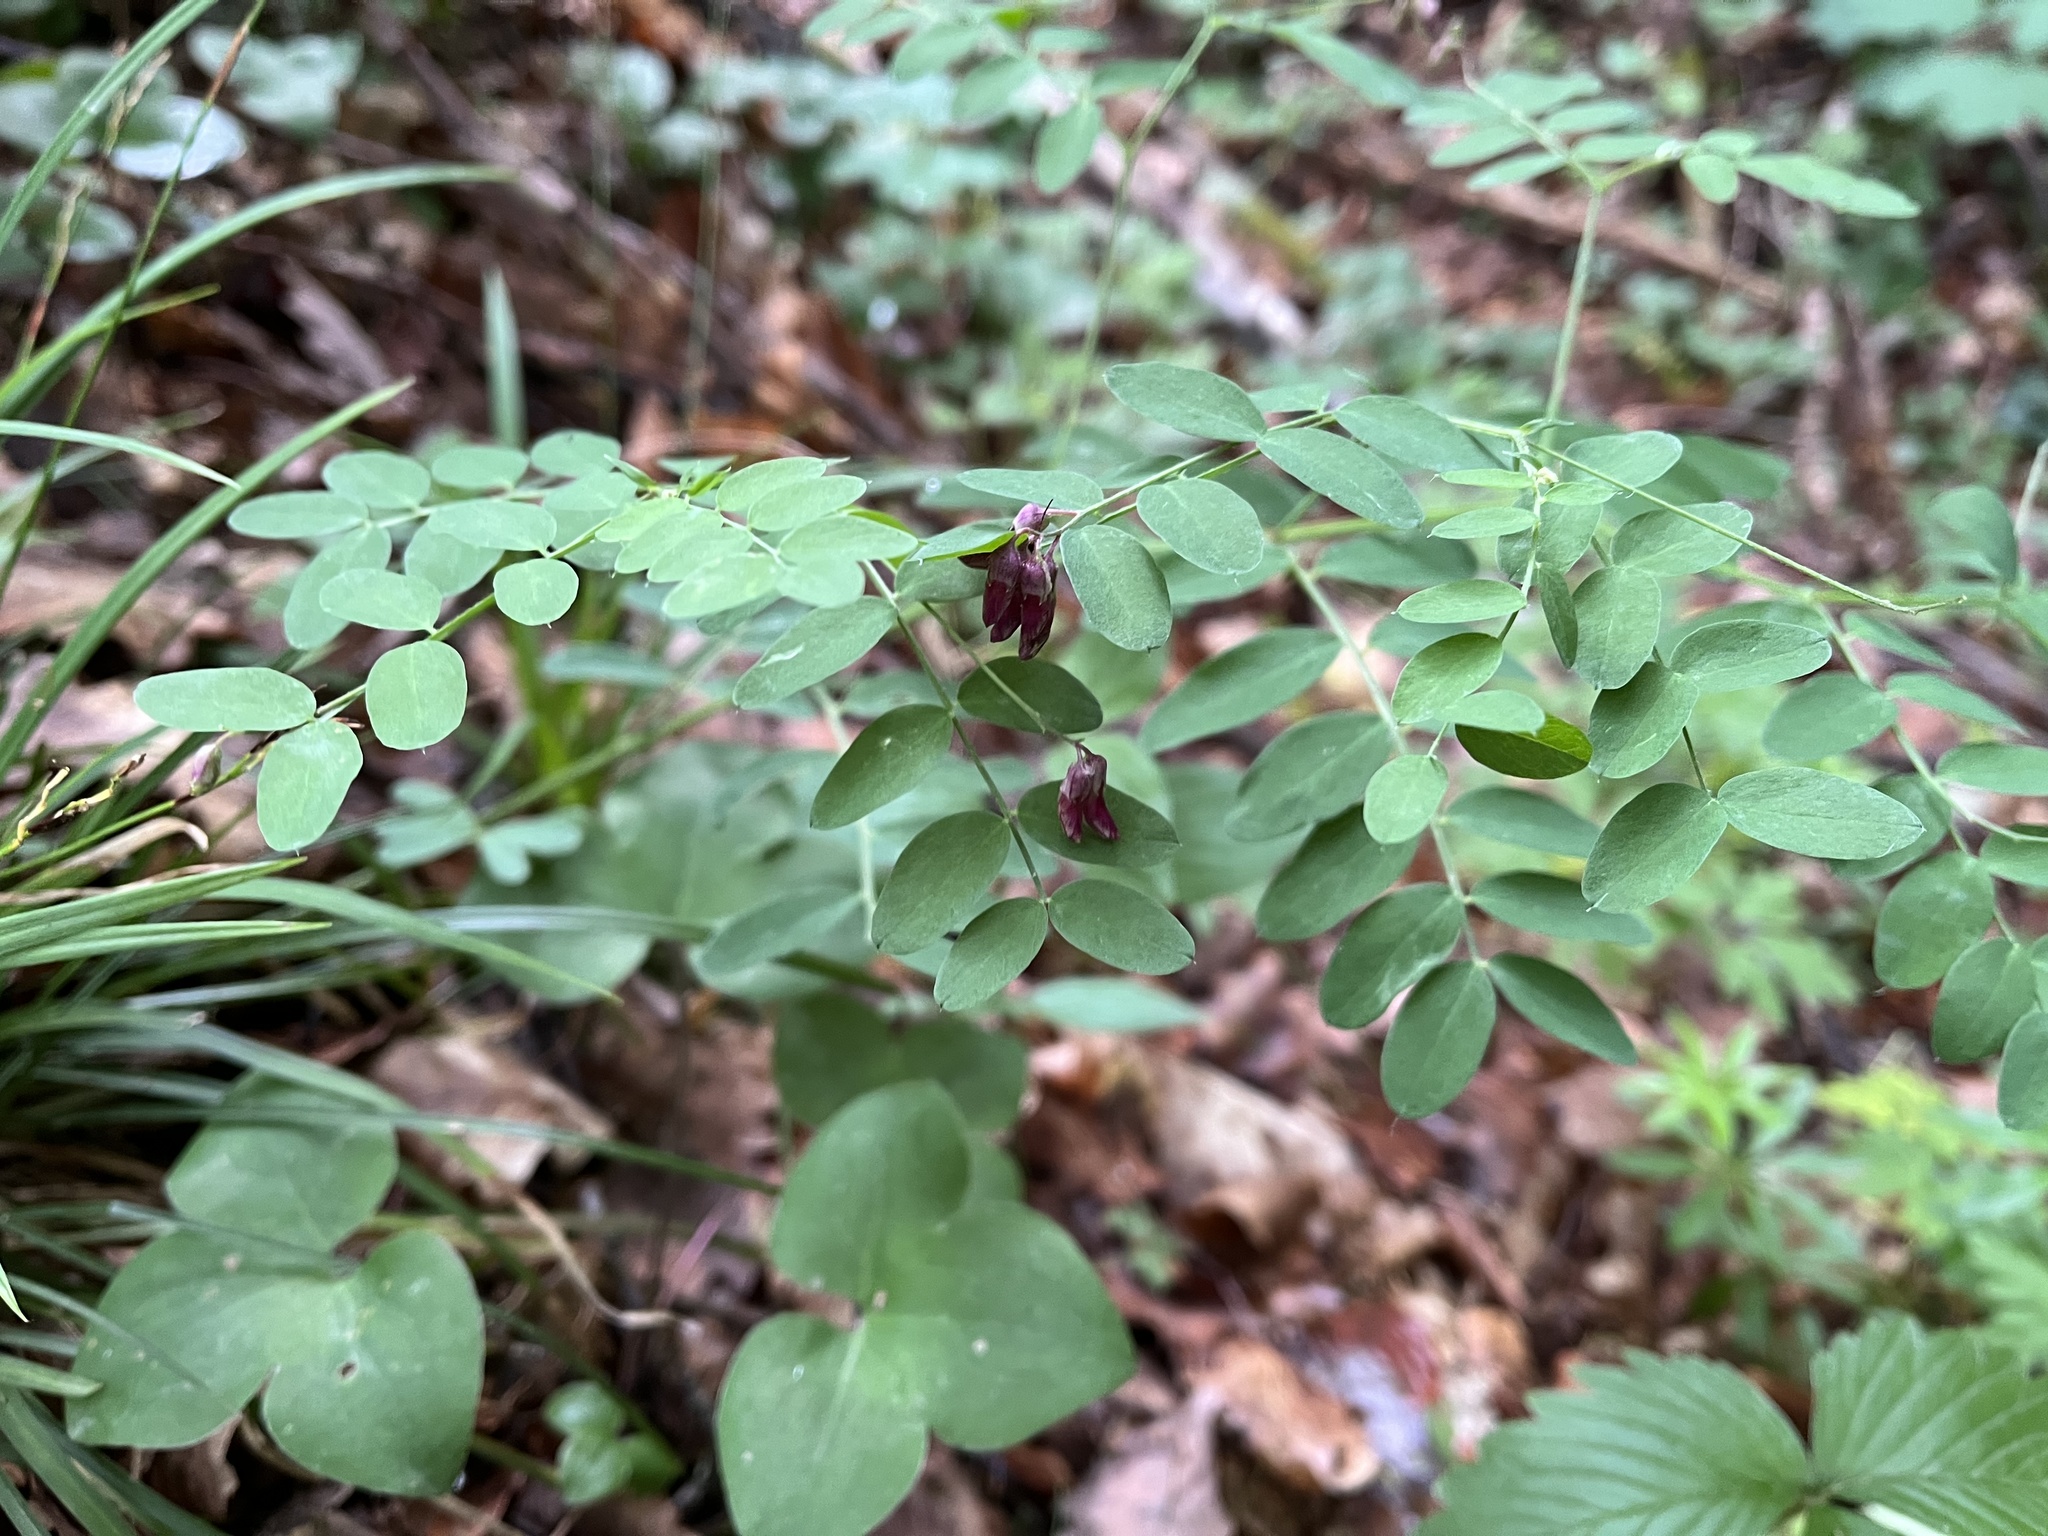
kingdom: Plantae
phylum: Tracheophyta
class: Magnoliopsida
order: Fabales
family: Fabaceae
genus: Lathyrus
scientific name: Lathyrus niger
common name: Black pea
